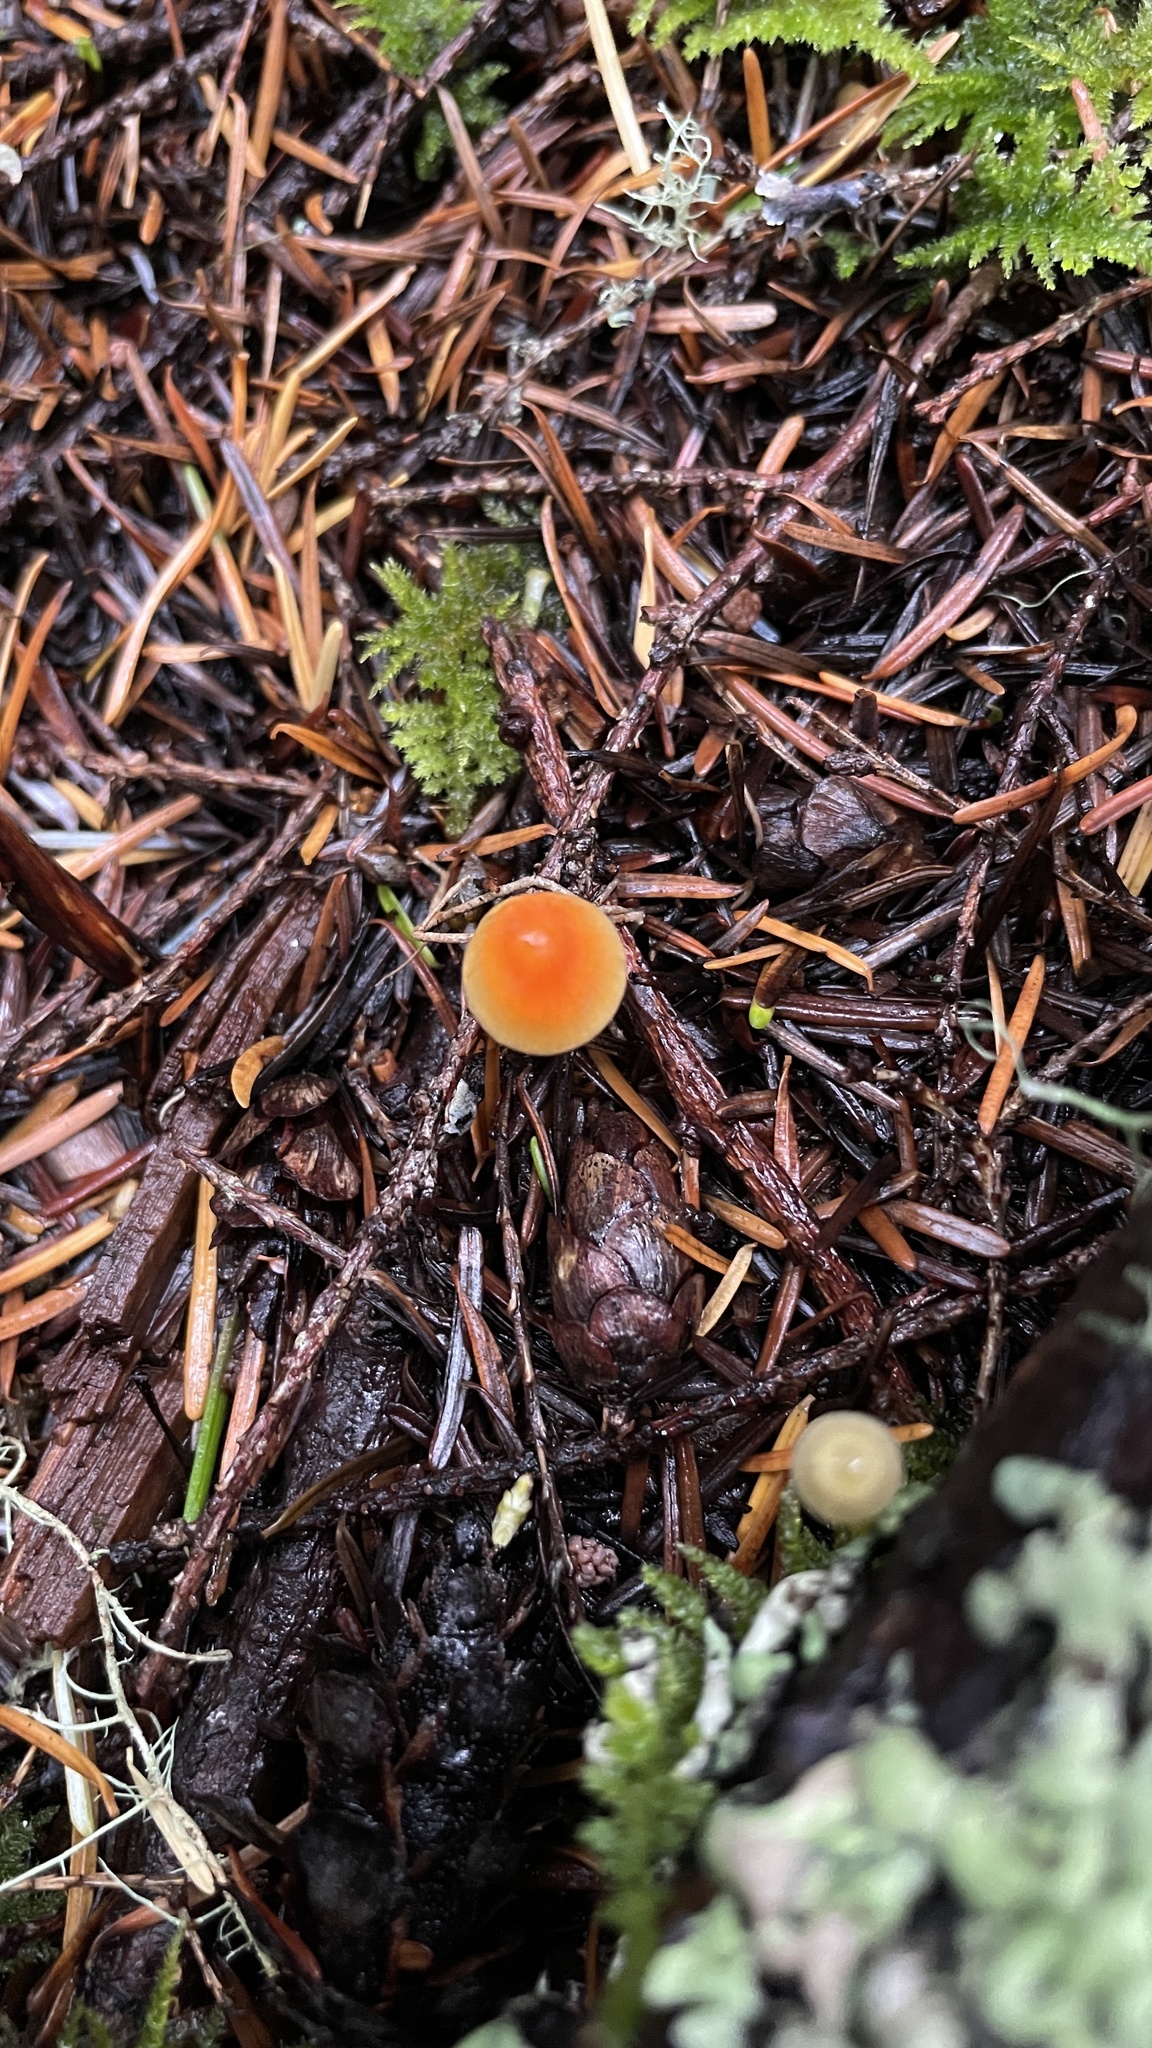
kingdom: Fungi
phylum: Basidiomycota
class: Agaricomycetes
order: Agaricales
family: Mycenaceae
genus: Atheniella
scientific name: Atheniella aurantiidisca
